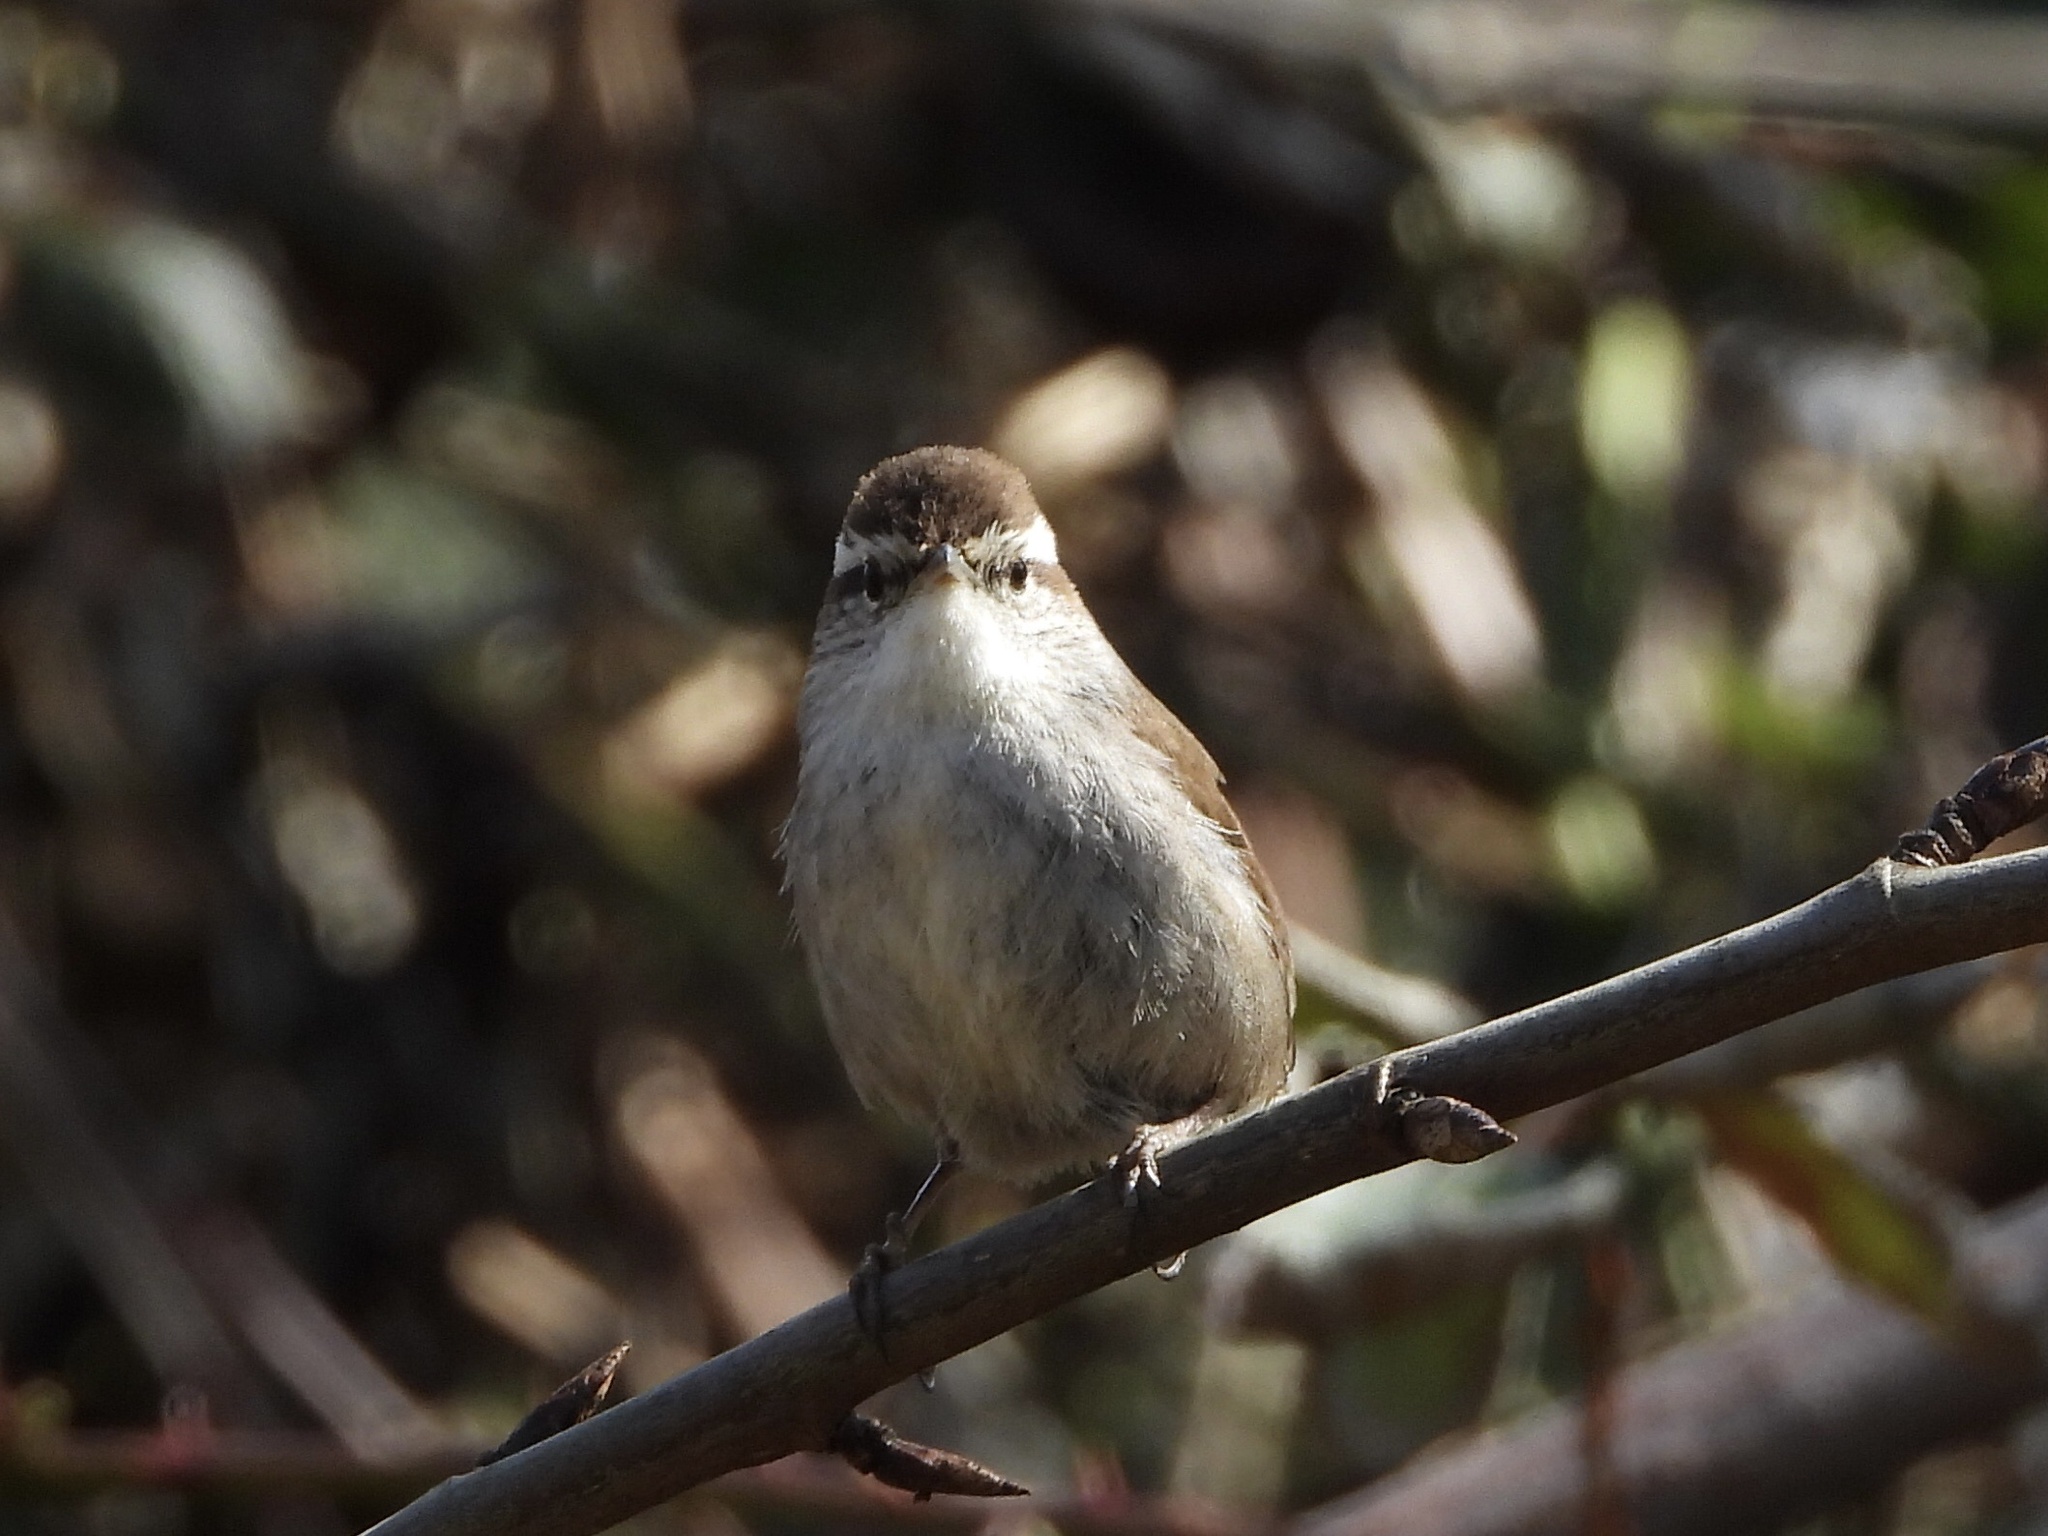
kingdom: Animalia
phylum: Chordata
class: Aves
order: Passeriformes
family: Troglodytidae
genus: Thryomanes
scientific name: Thryomanes bewickii
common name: Bewick's wren
